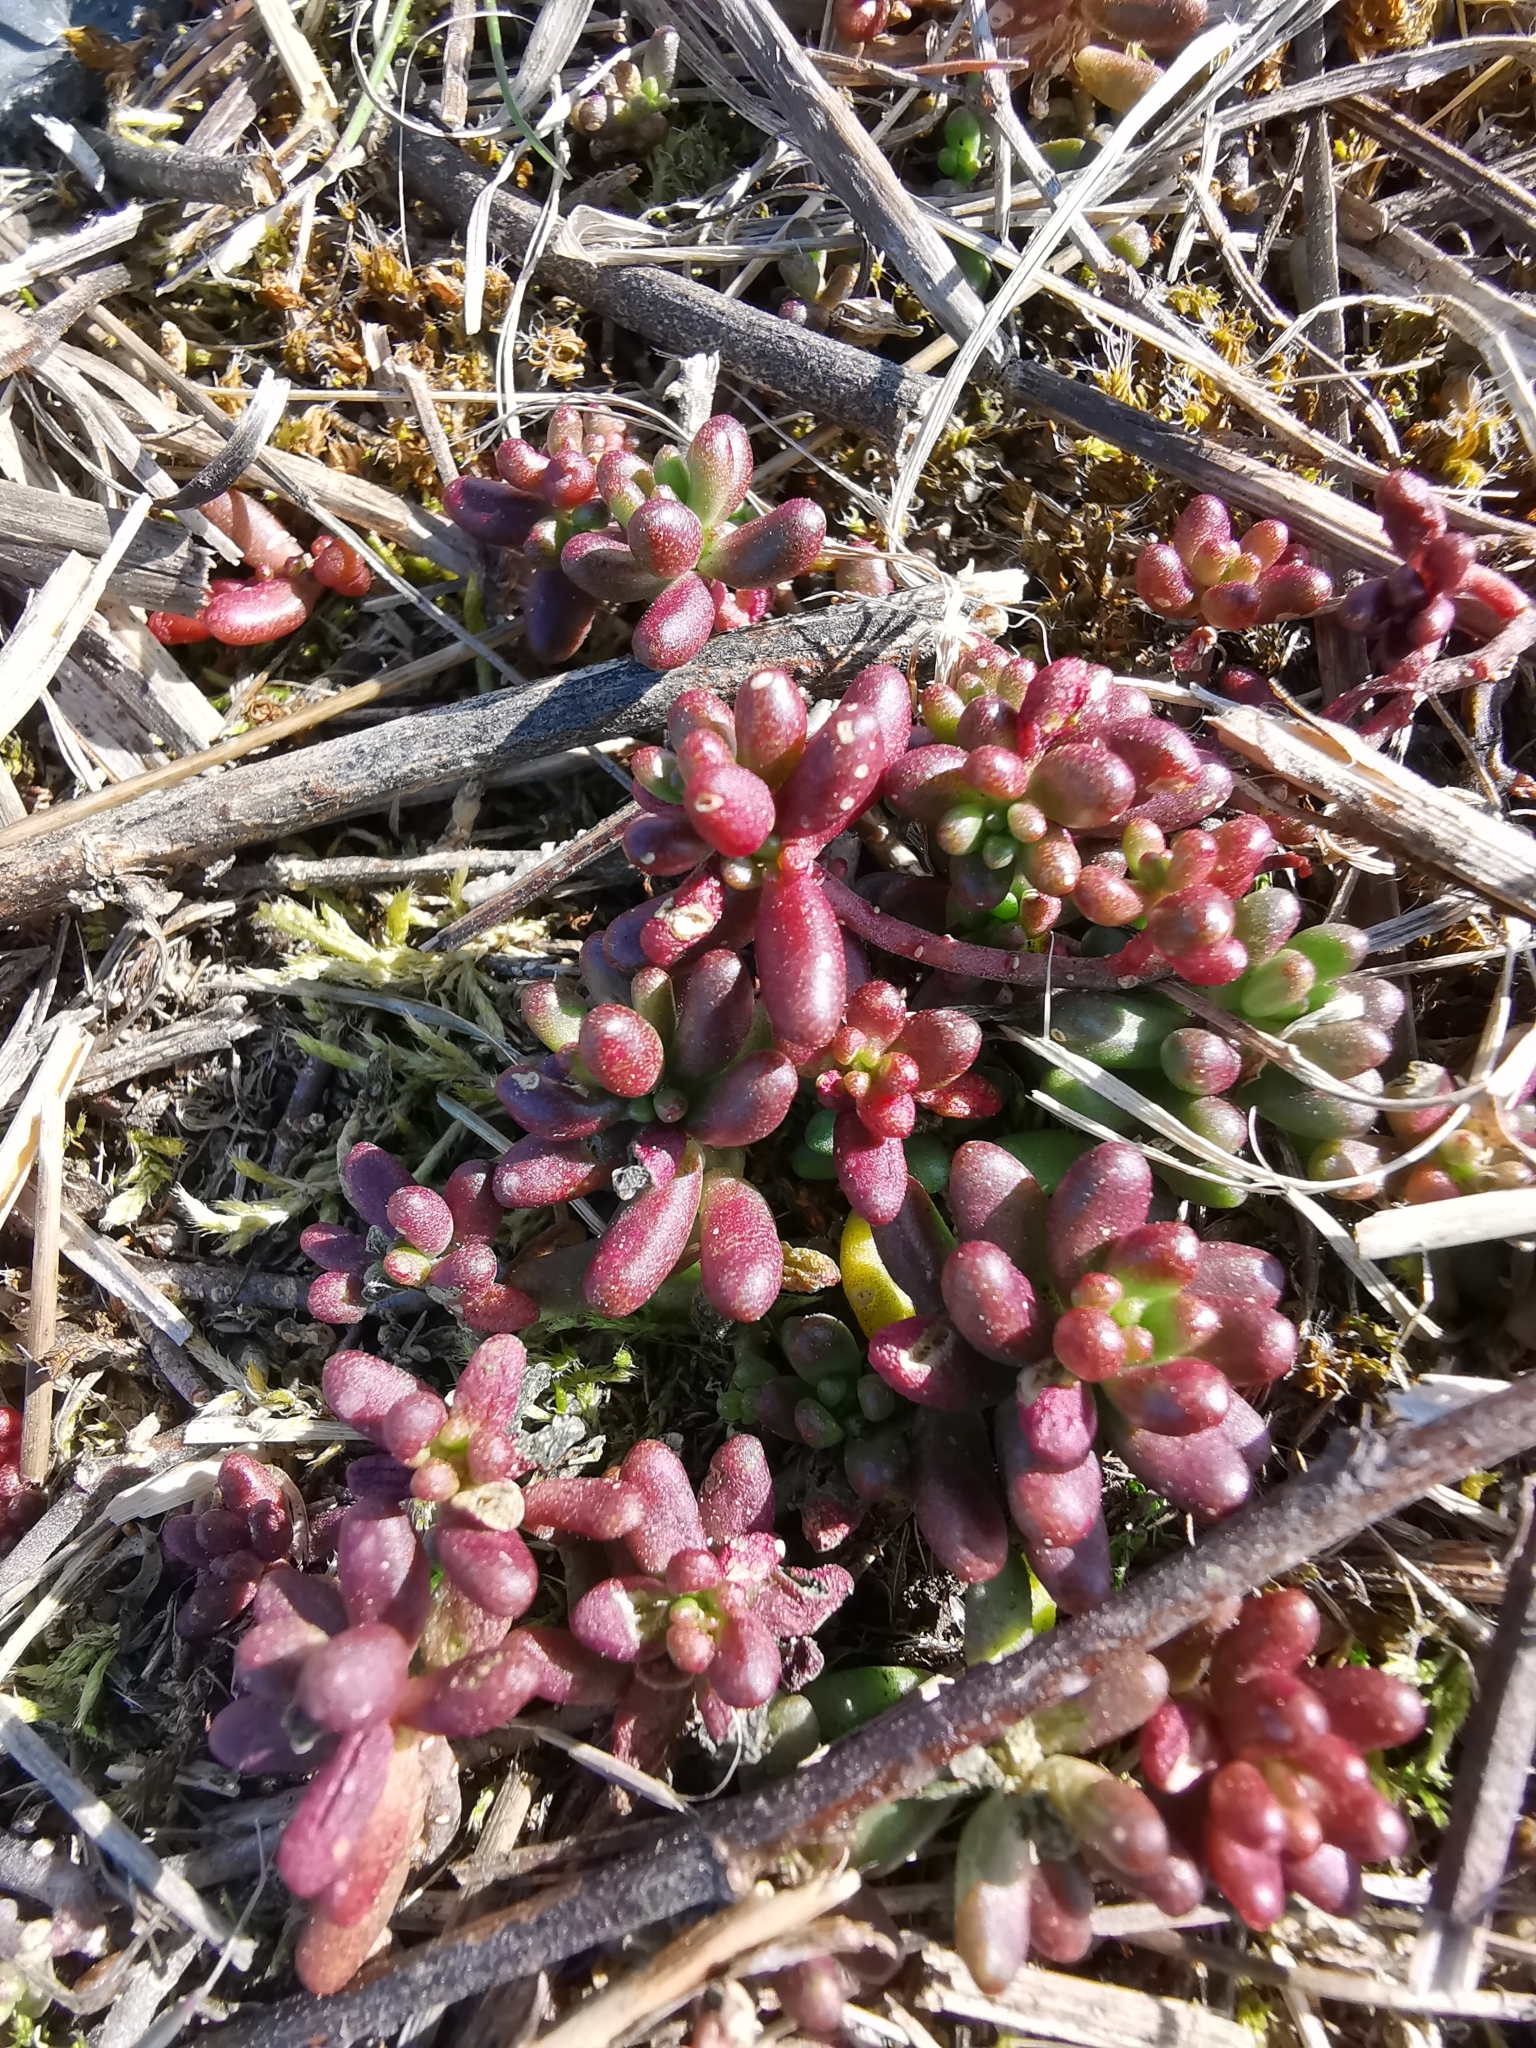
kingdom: Plantae
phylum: Tracheophyta
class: Magnoliopsida
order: Saxifragales
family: Crassulaceae
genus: Sedum
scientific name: Sedum album
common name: White stonecrop
